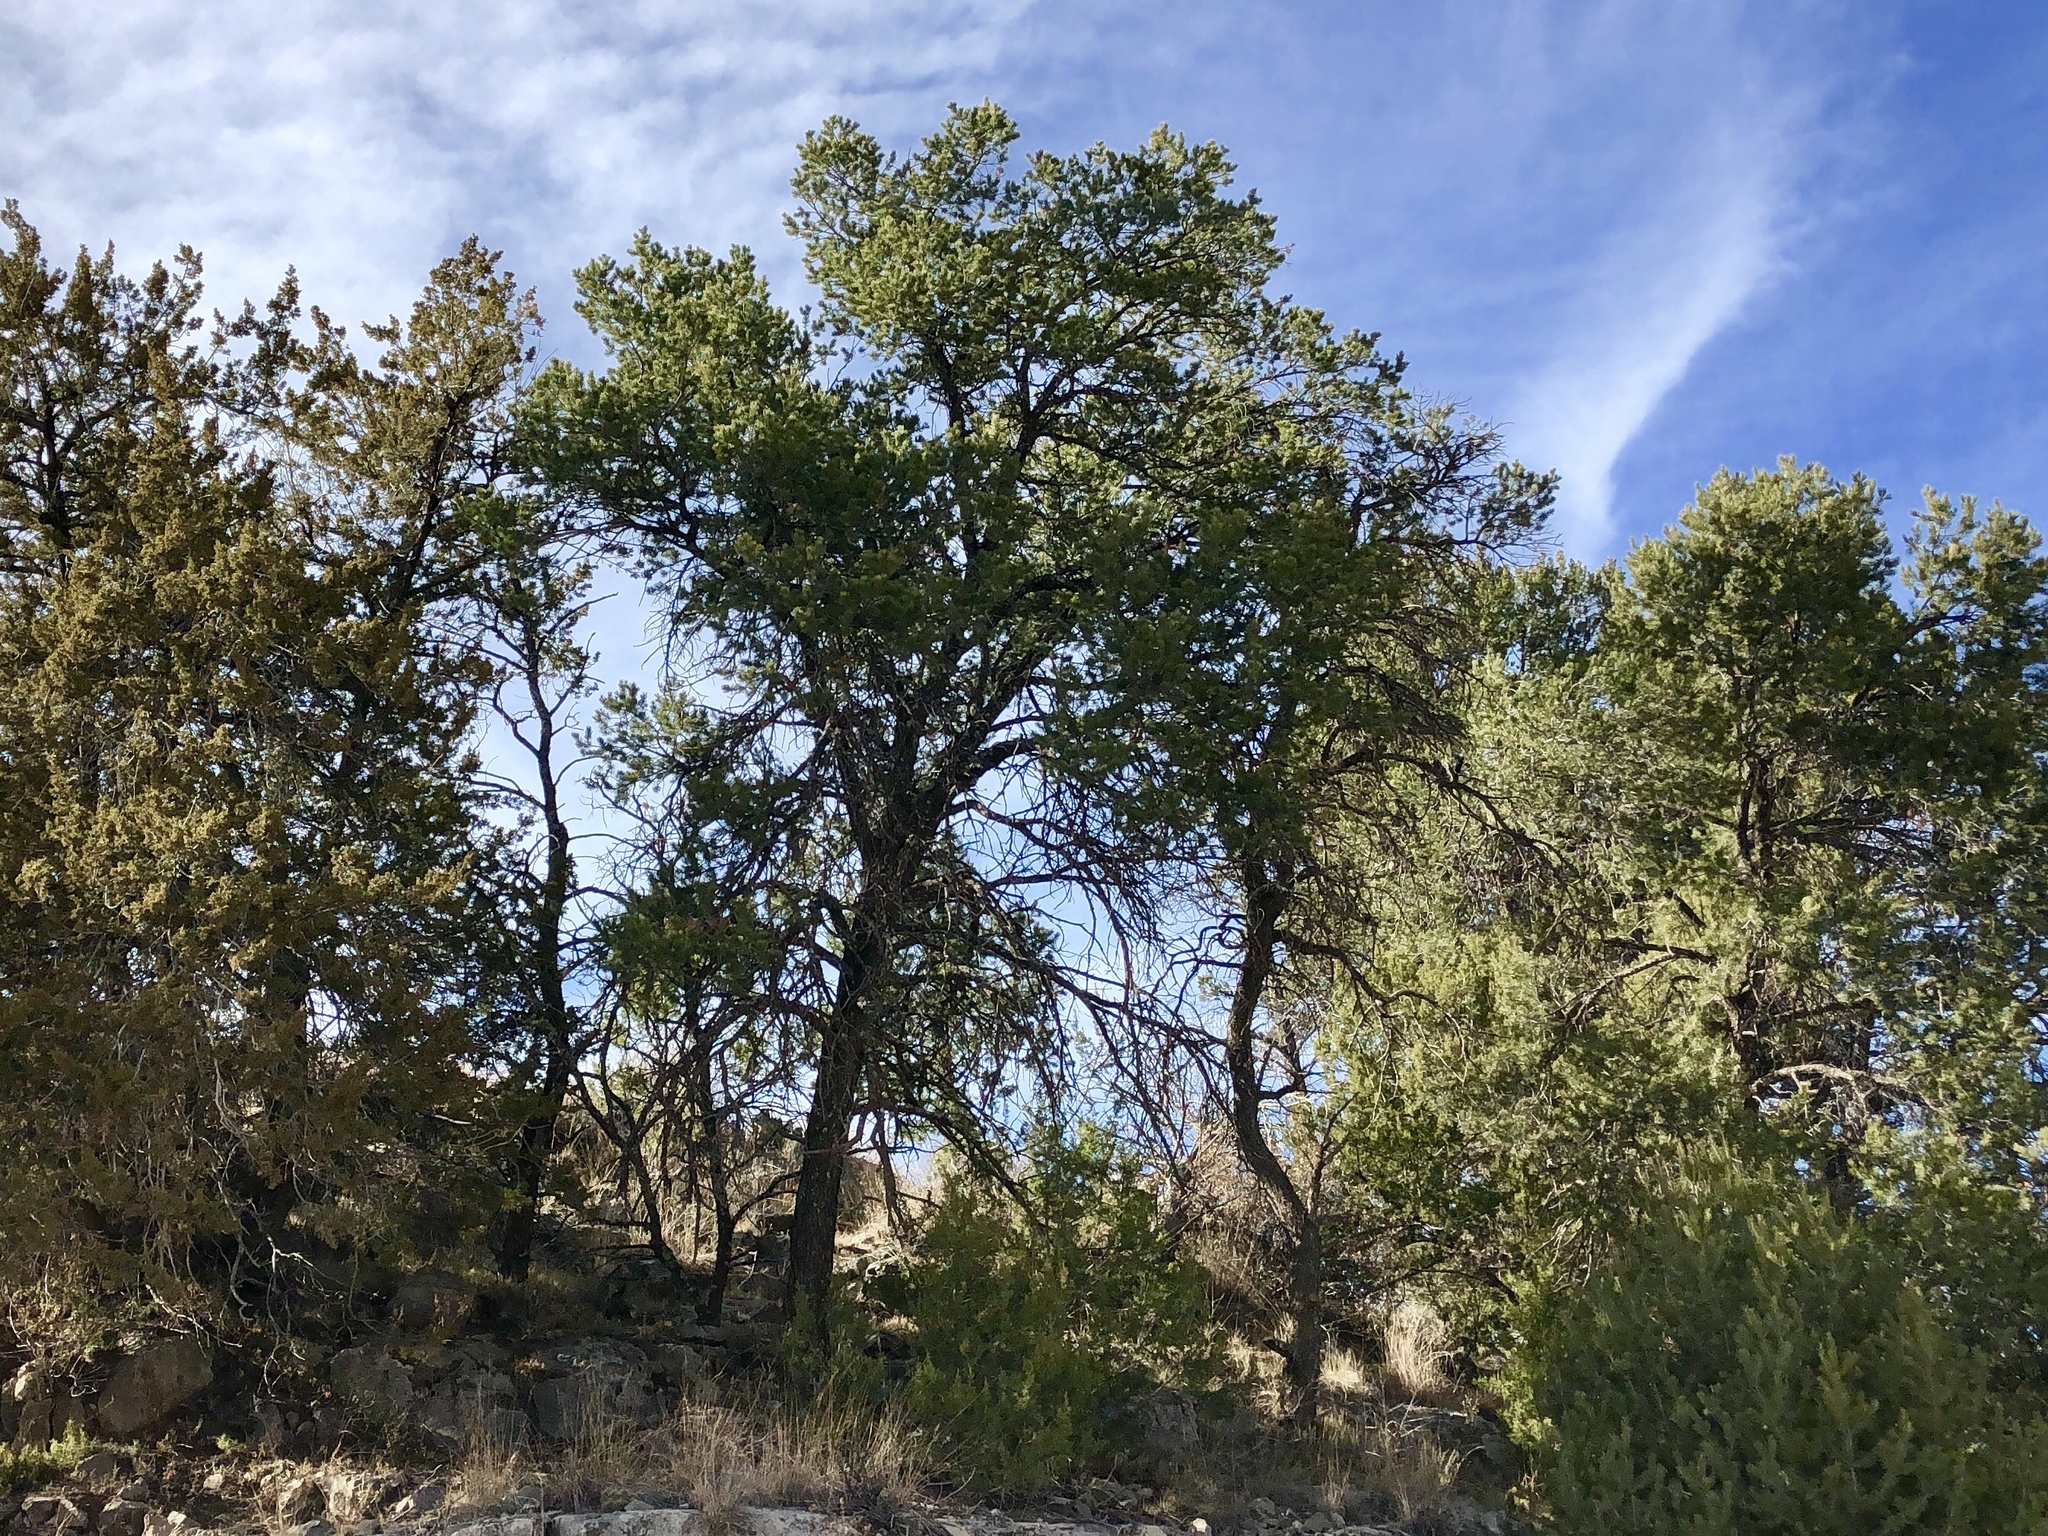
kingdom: Plantae
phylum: Tracheophyta
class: Pinopsida
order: Pinales
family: Pinaceae
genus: Pinus
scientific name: Pinus edulis
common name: Colorado pinyon
